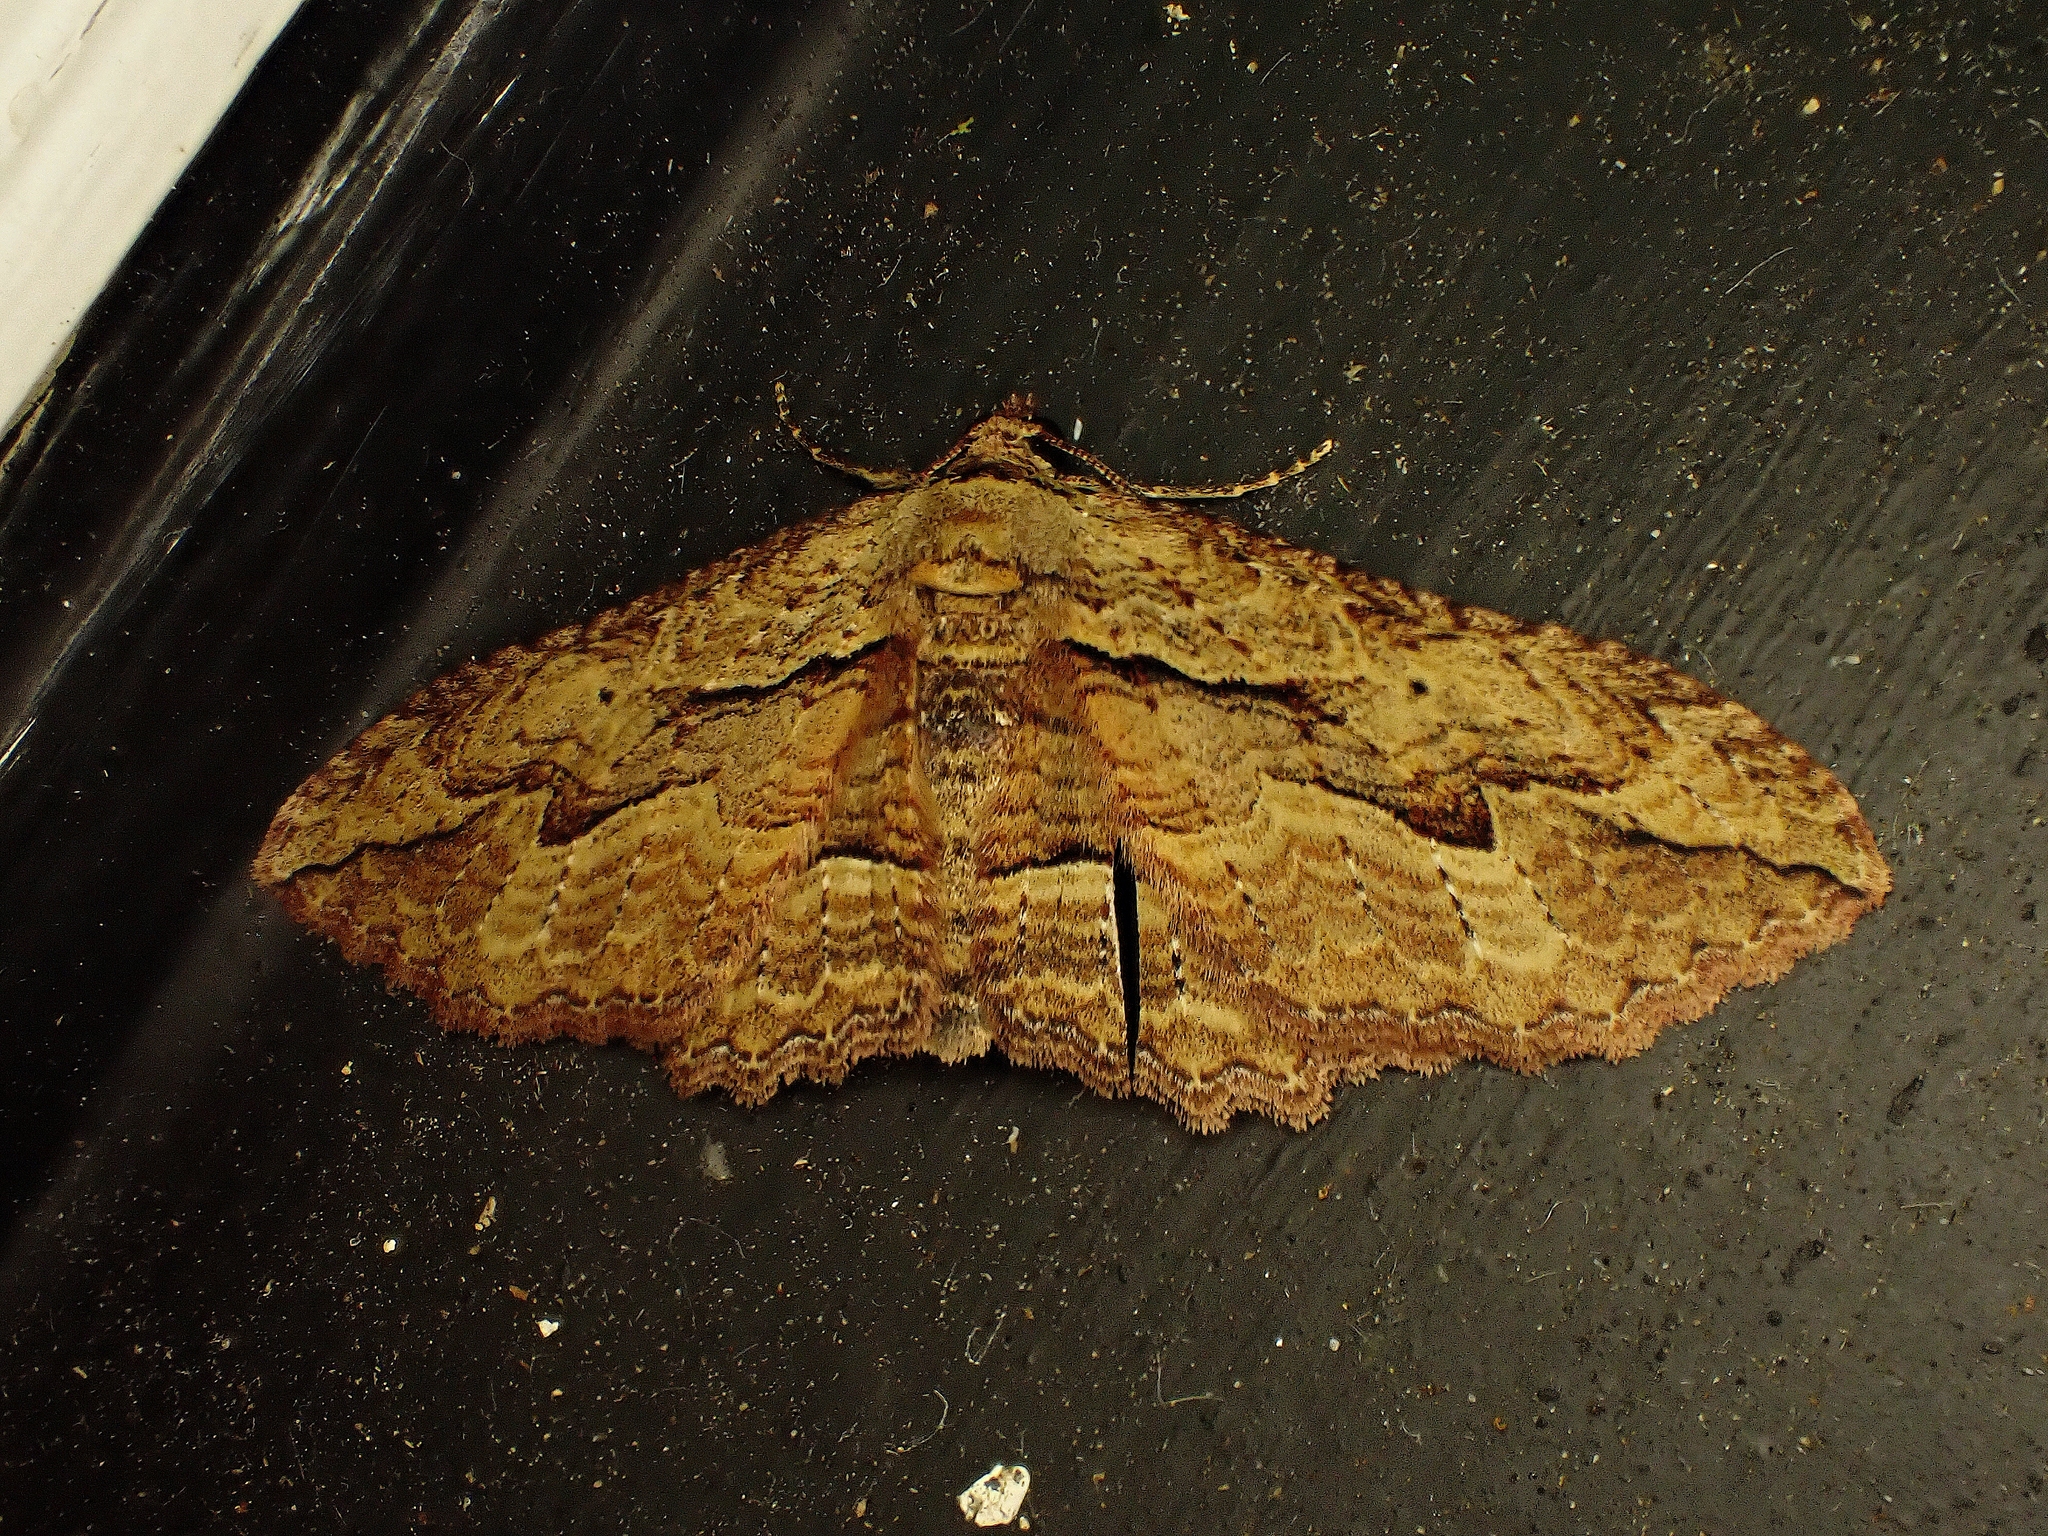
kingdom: Animalia
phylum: Arthropoda
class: Insecta
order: Lepidoptera
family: Geometridae
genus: Austrocidaria
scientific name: Austrocidaria bipartita
